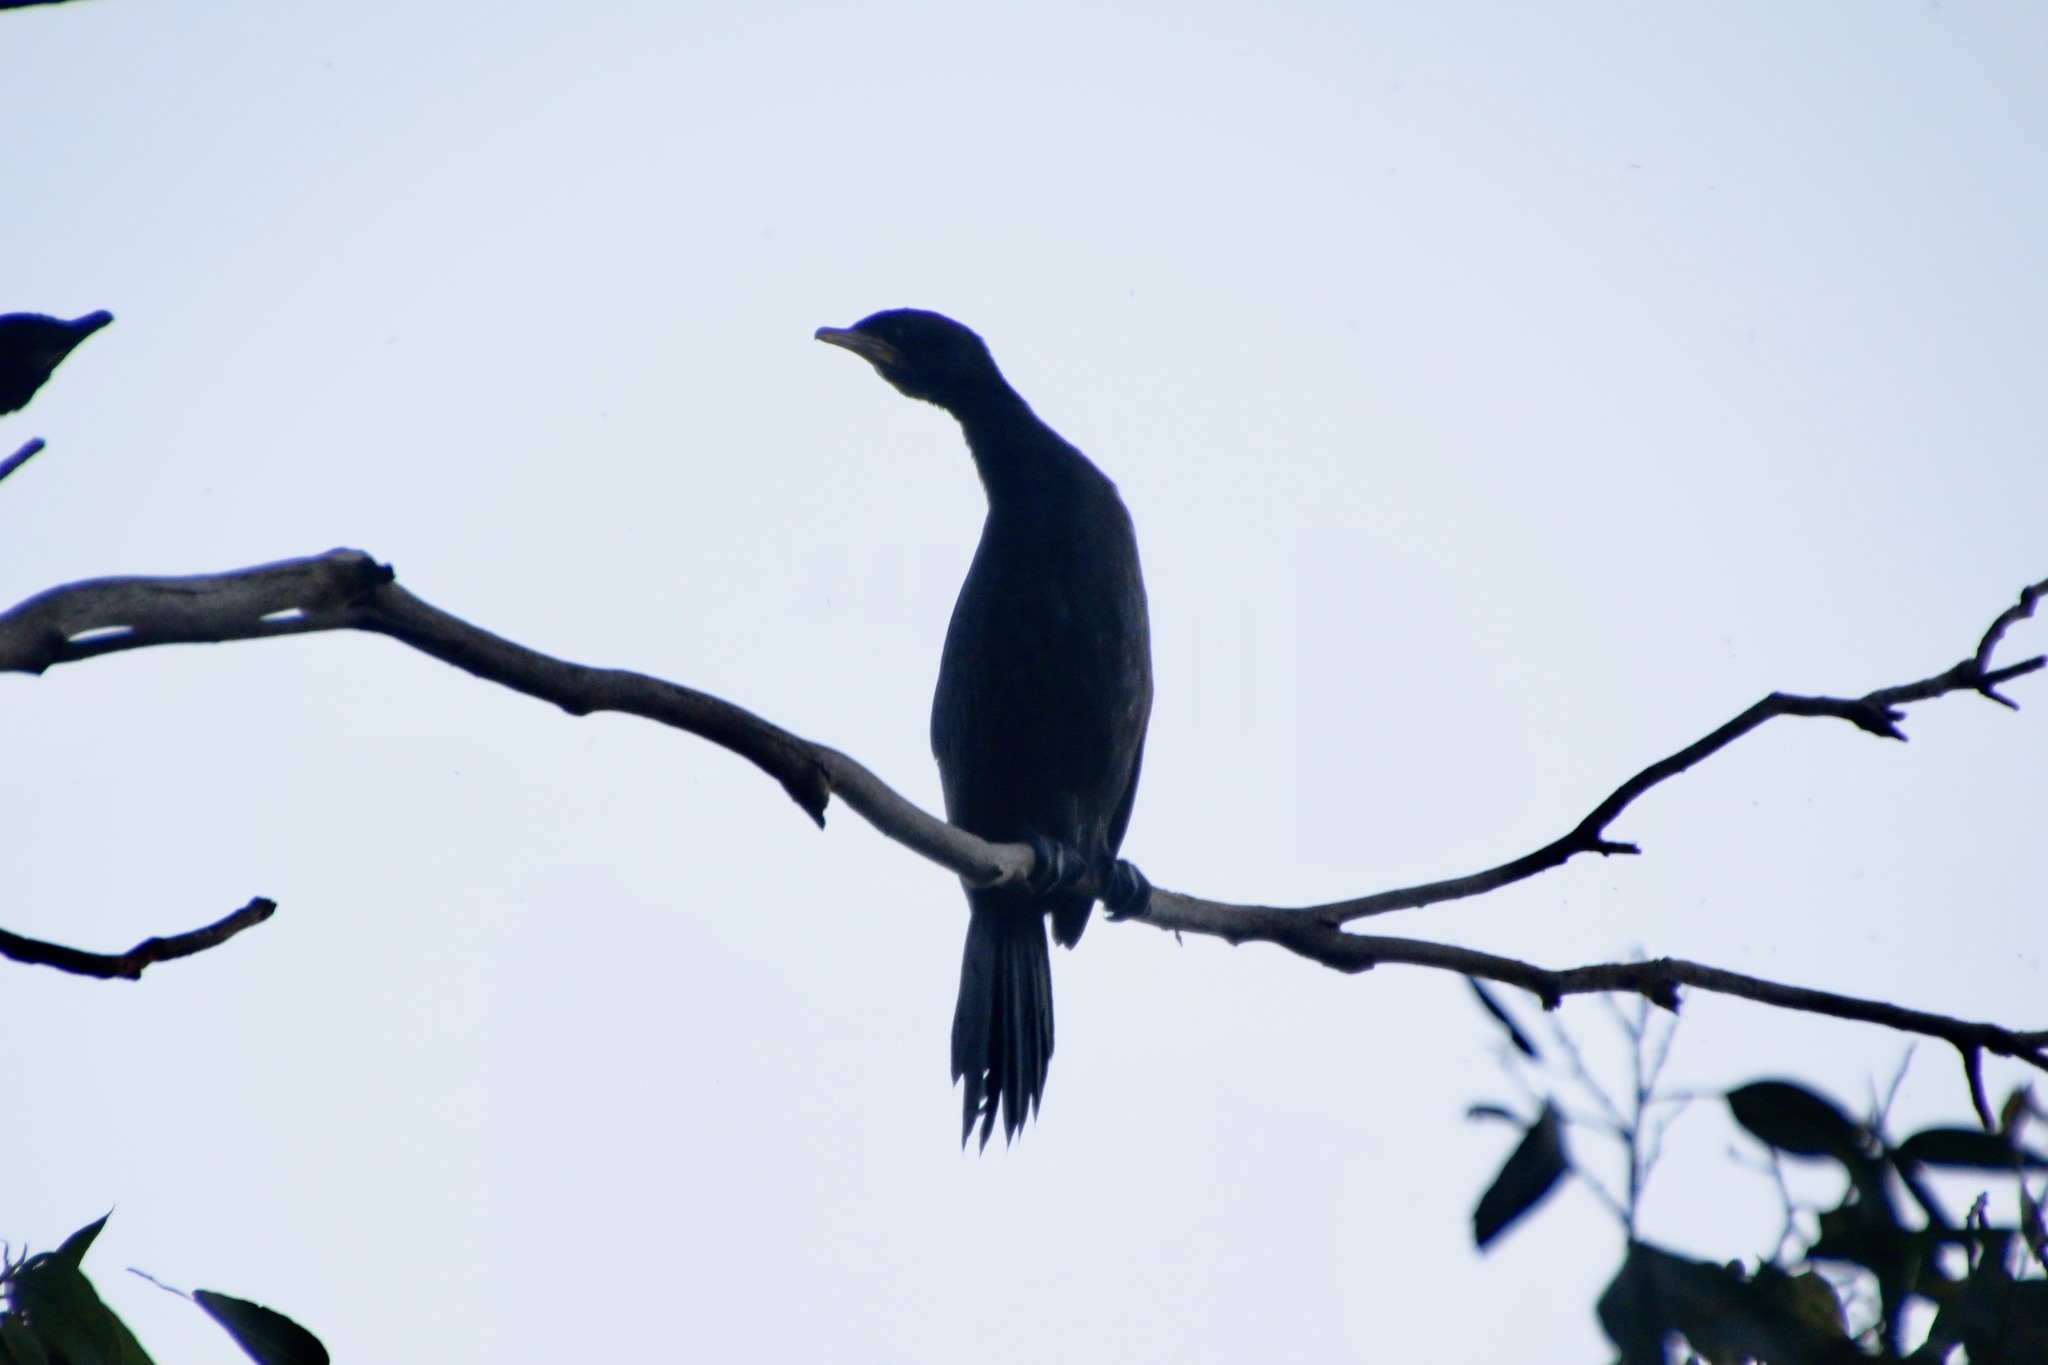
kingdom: Animalia
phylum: Chordata
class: Aves
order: Suliformes
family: Phalacrocoracidae
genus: Microcarbo
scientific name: Microcarbo melanoleucos
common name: Little pied cormorant
